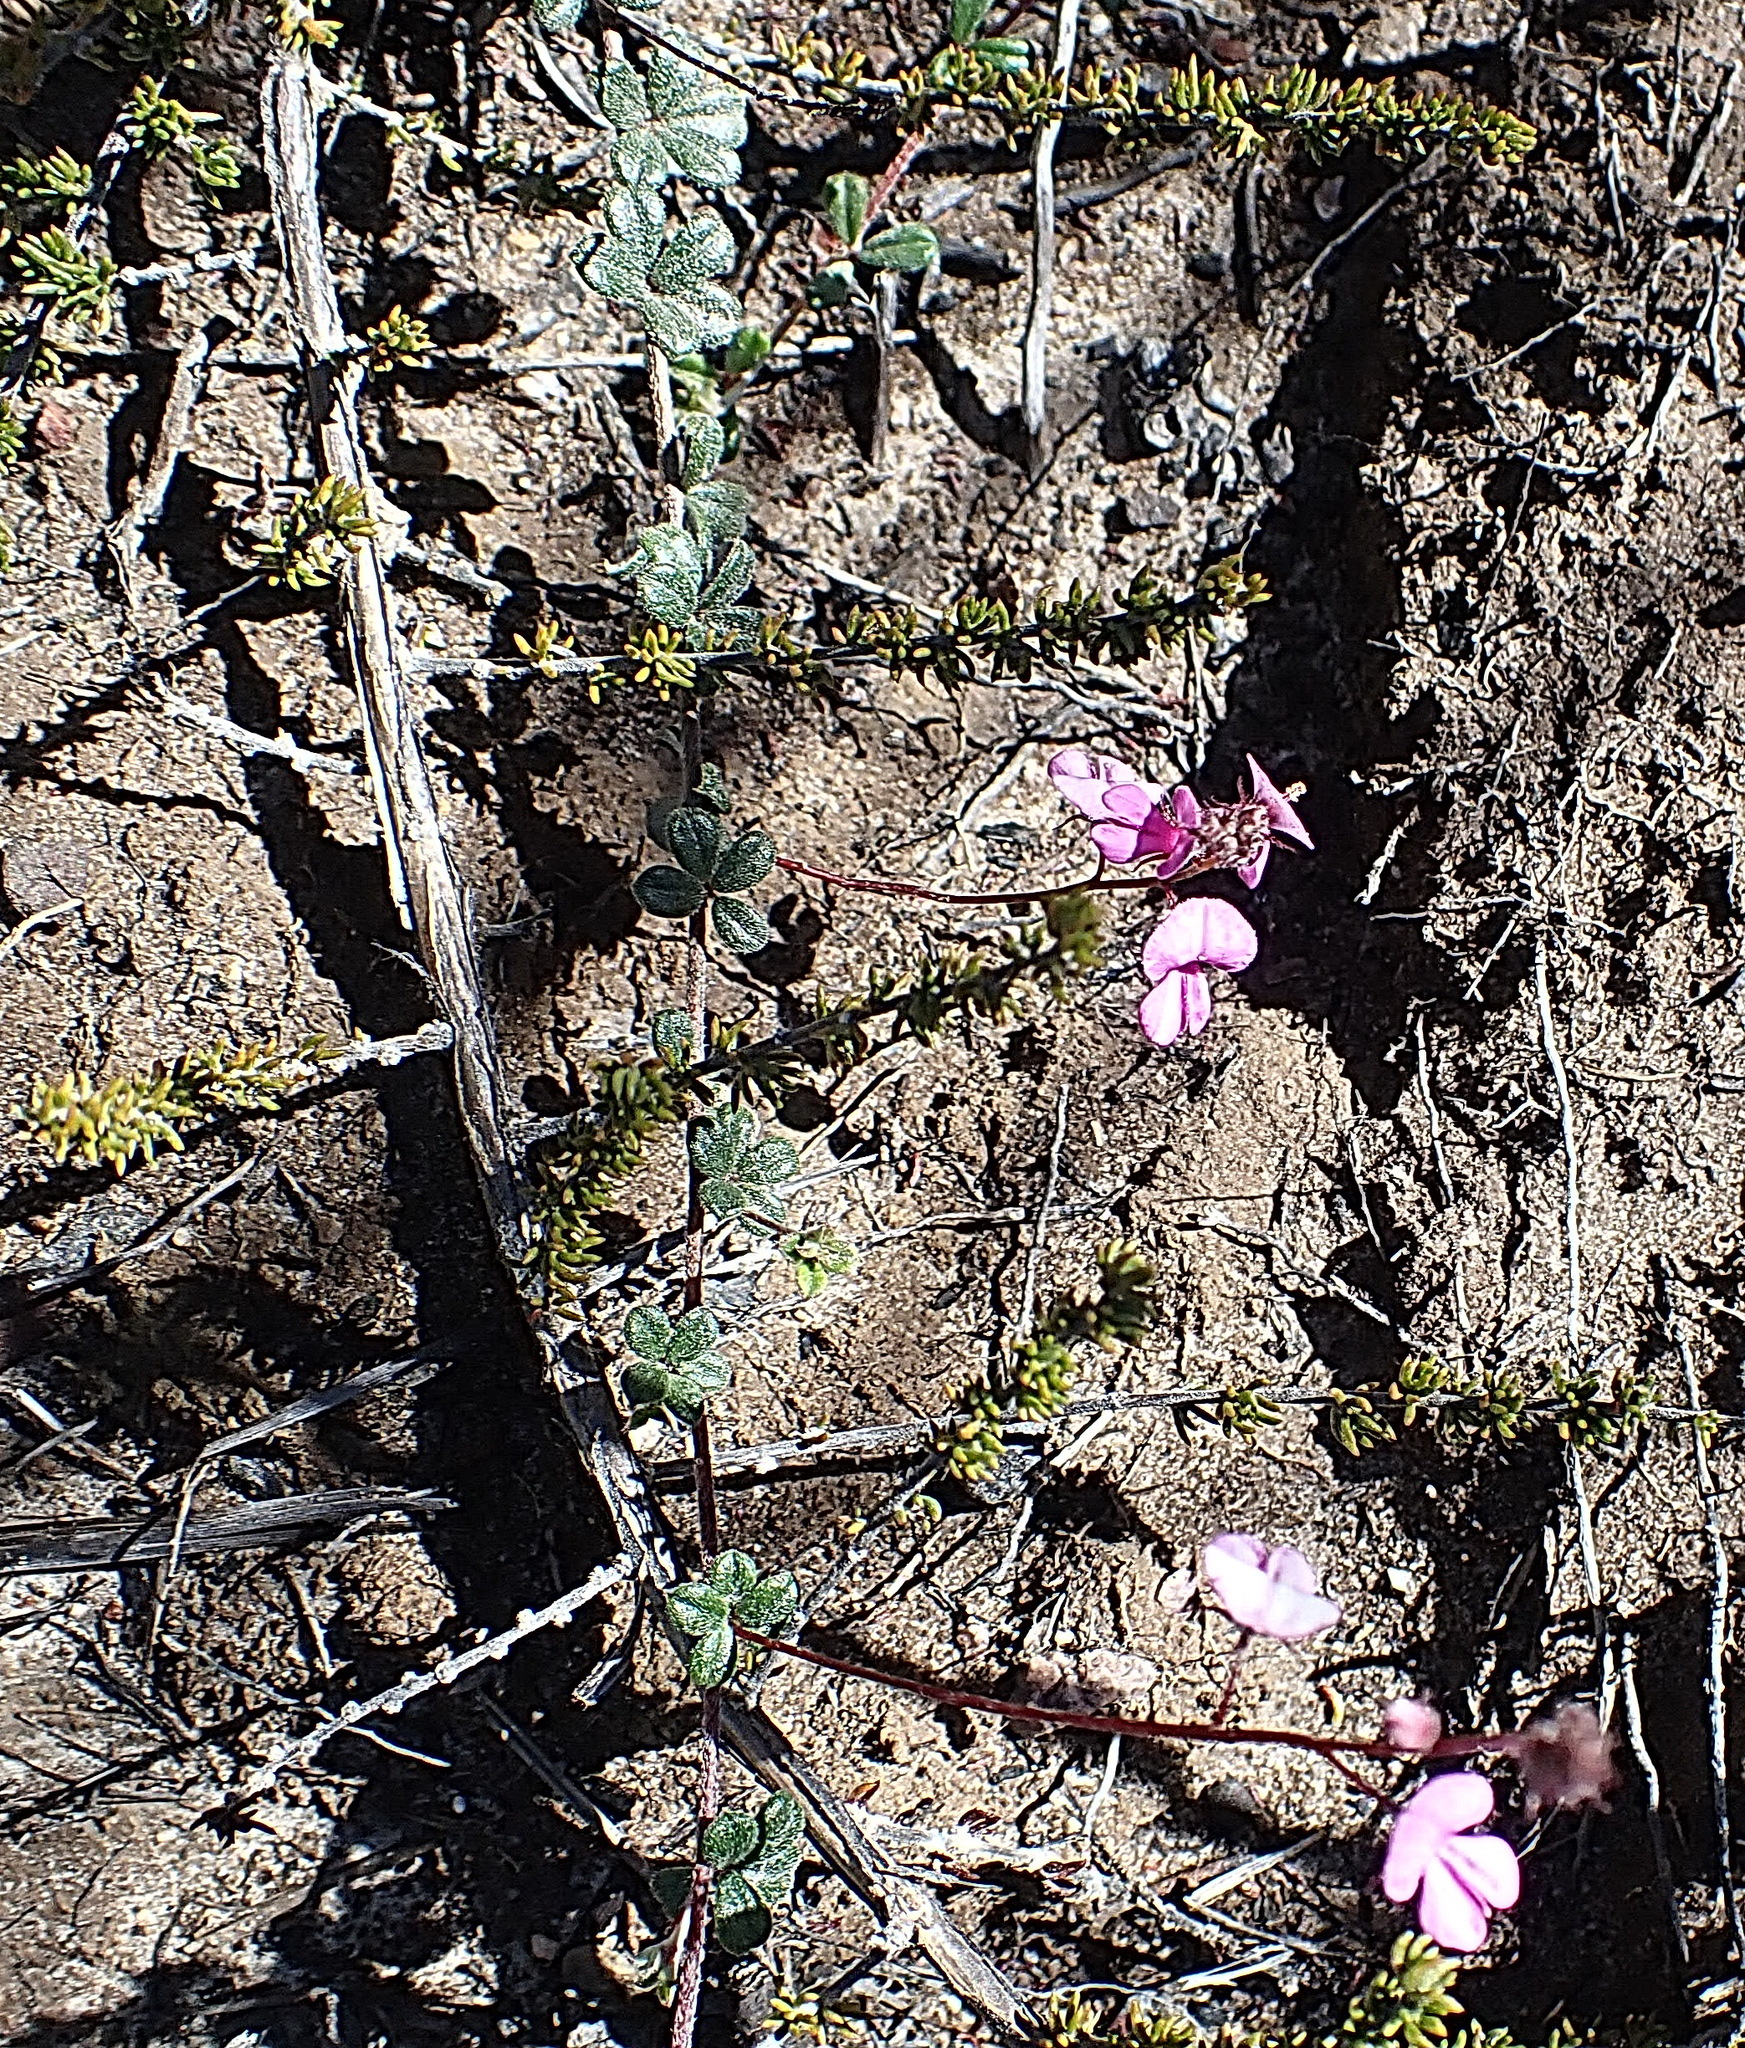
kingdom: Plantae
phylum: Tracheophyta
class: Magnoliopsida
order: Fabales
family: Fabaceae
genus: Indigofera
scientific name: Indigofera
